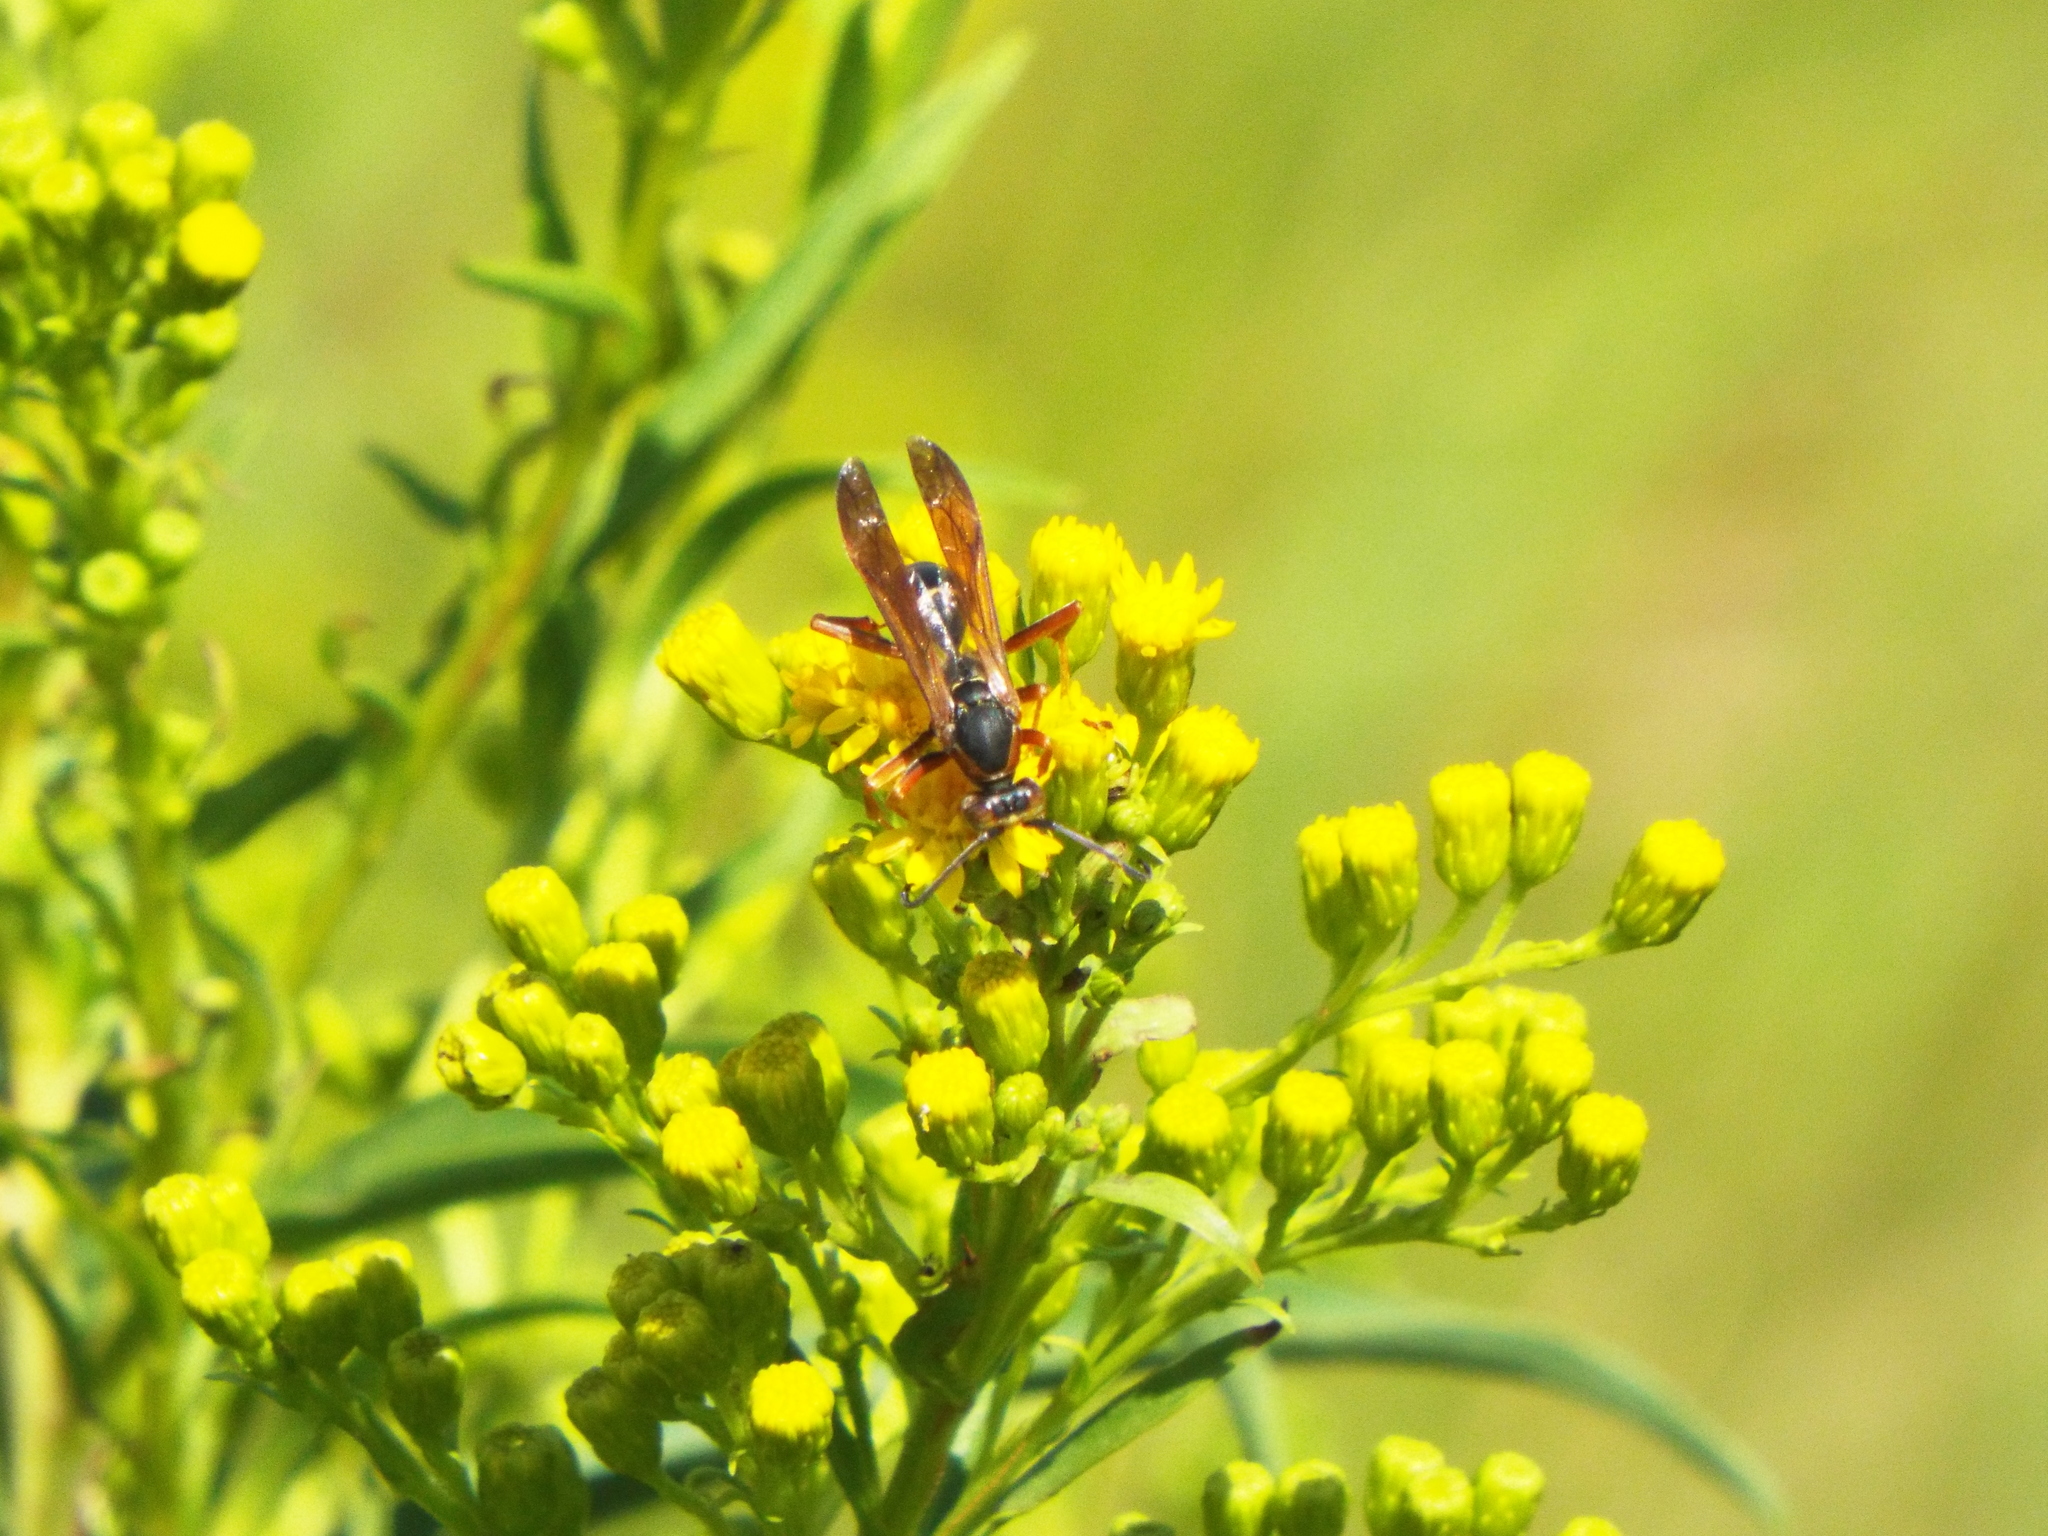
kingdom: Animalia
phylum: Arthropoda
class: Insecta
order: Hymenoptera
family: Eumenidae
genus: Polistes
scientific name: Polistes fuscatus
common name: Dark paper wasp
